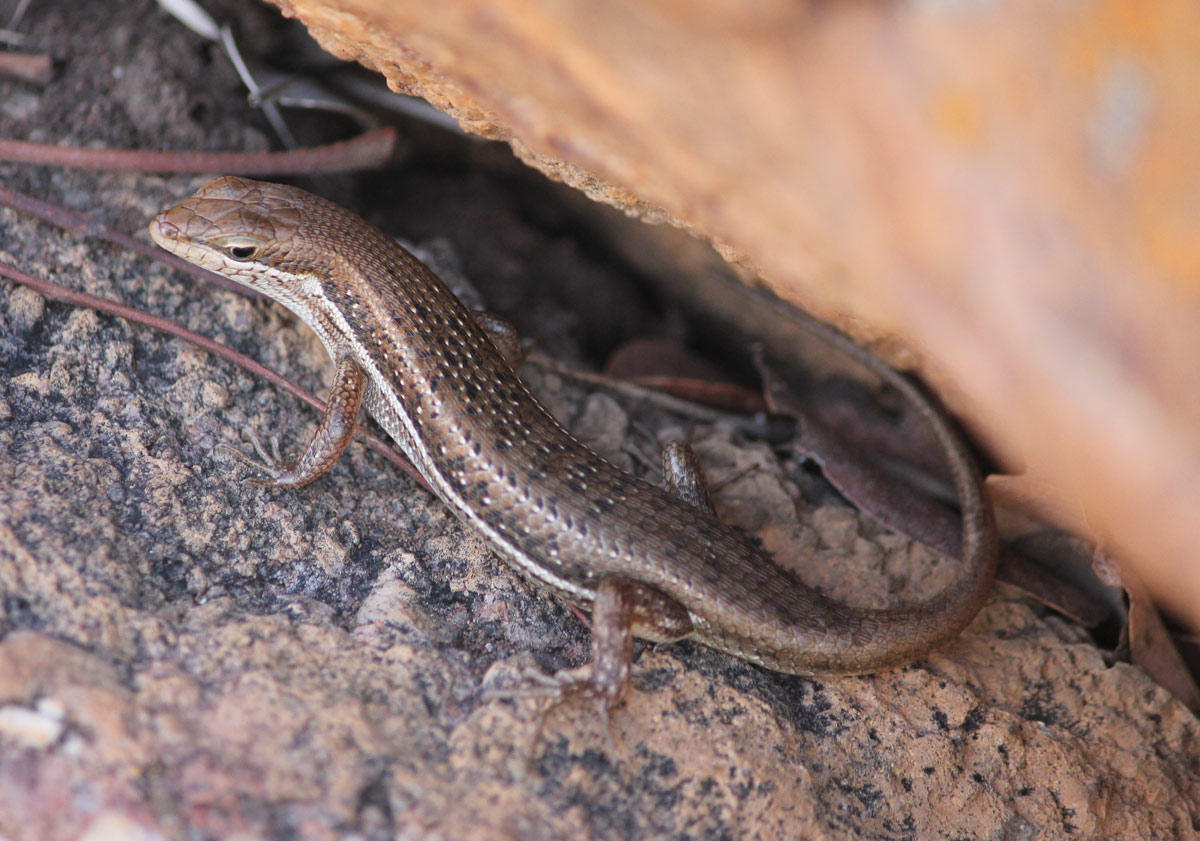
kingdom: Animalia
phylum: Chordata
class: Squamata
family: Scincidae
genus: Trachylepis
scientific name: Trachylepis varia
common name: Eastern variable skink
